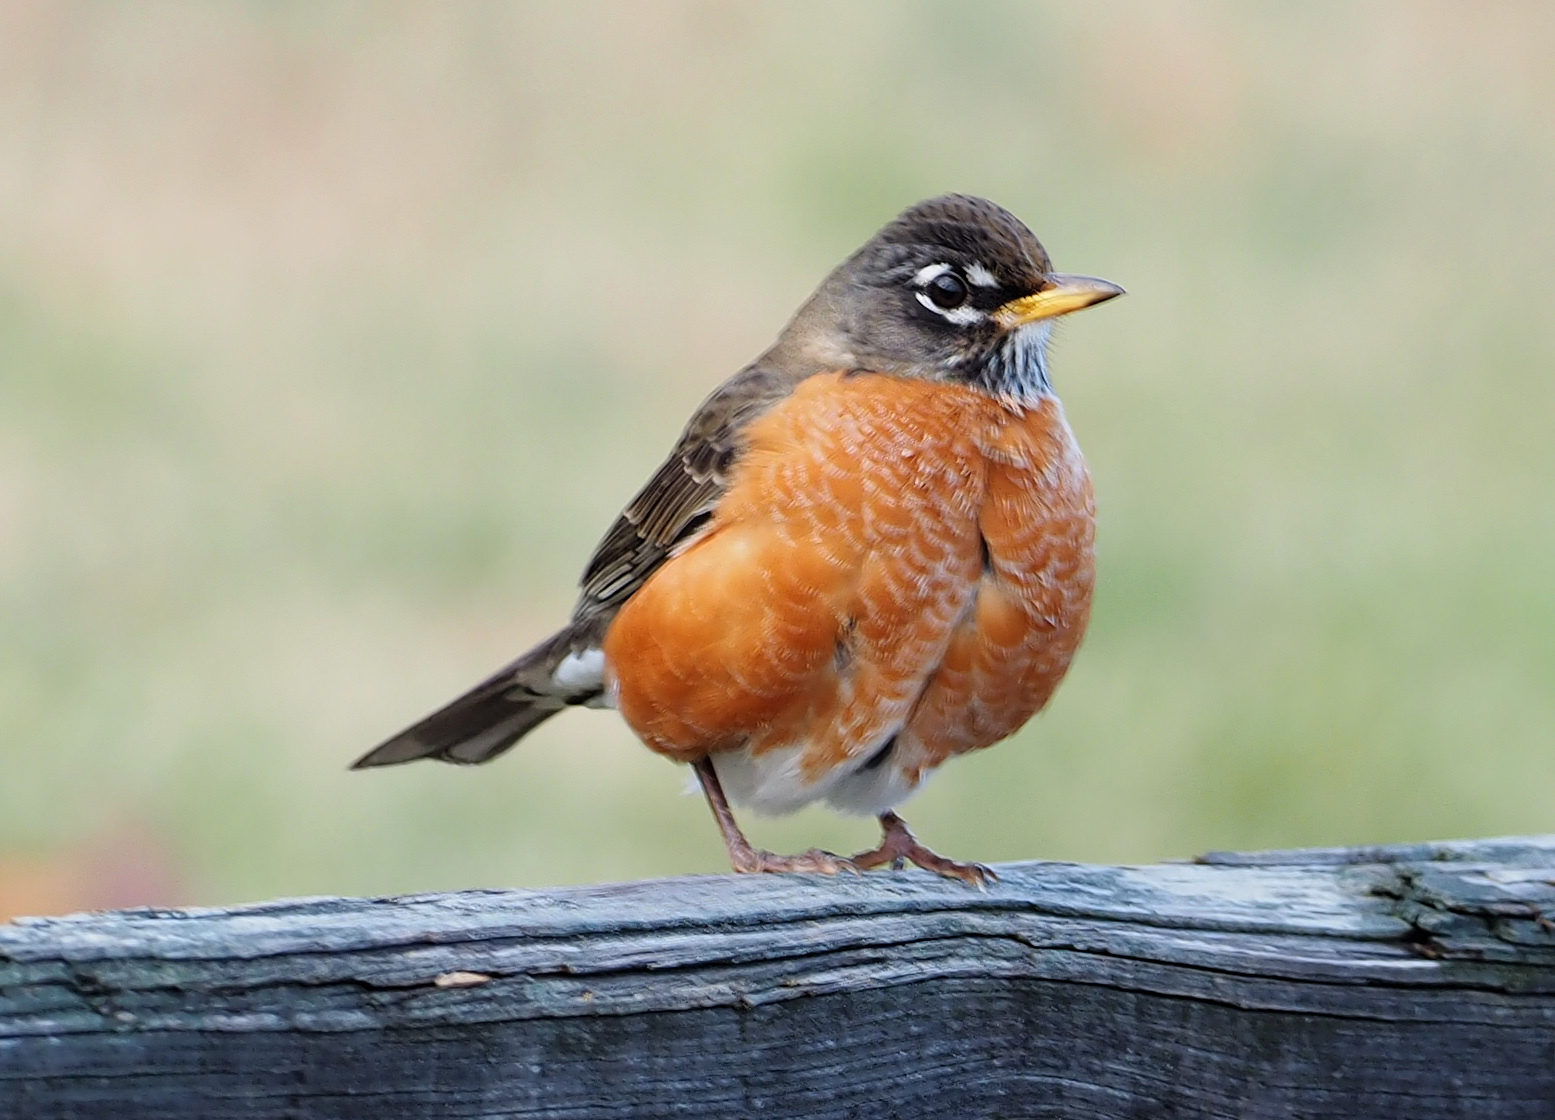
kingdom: Animalia
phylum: Chordata
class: Aves
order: Passeriformes
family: Turdidae
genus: Turdus
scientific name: Turdus migratorius
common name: American robin
